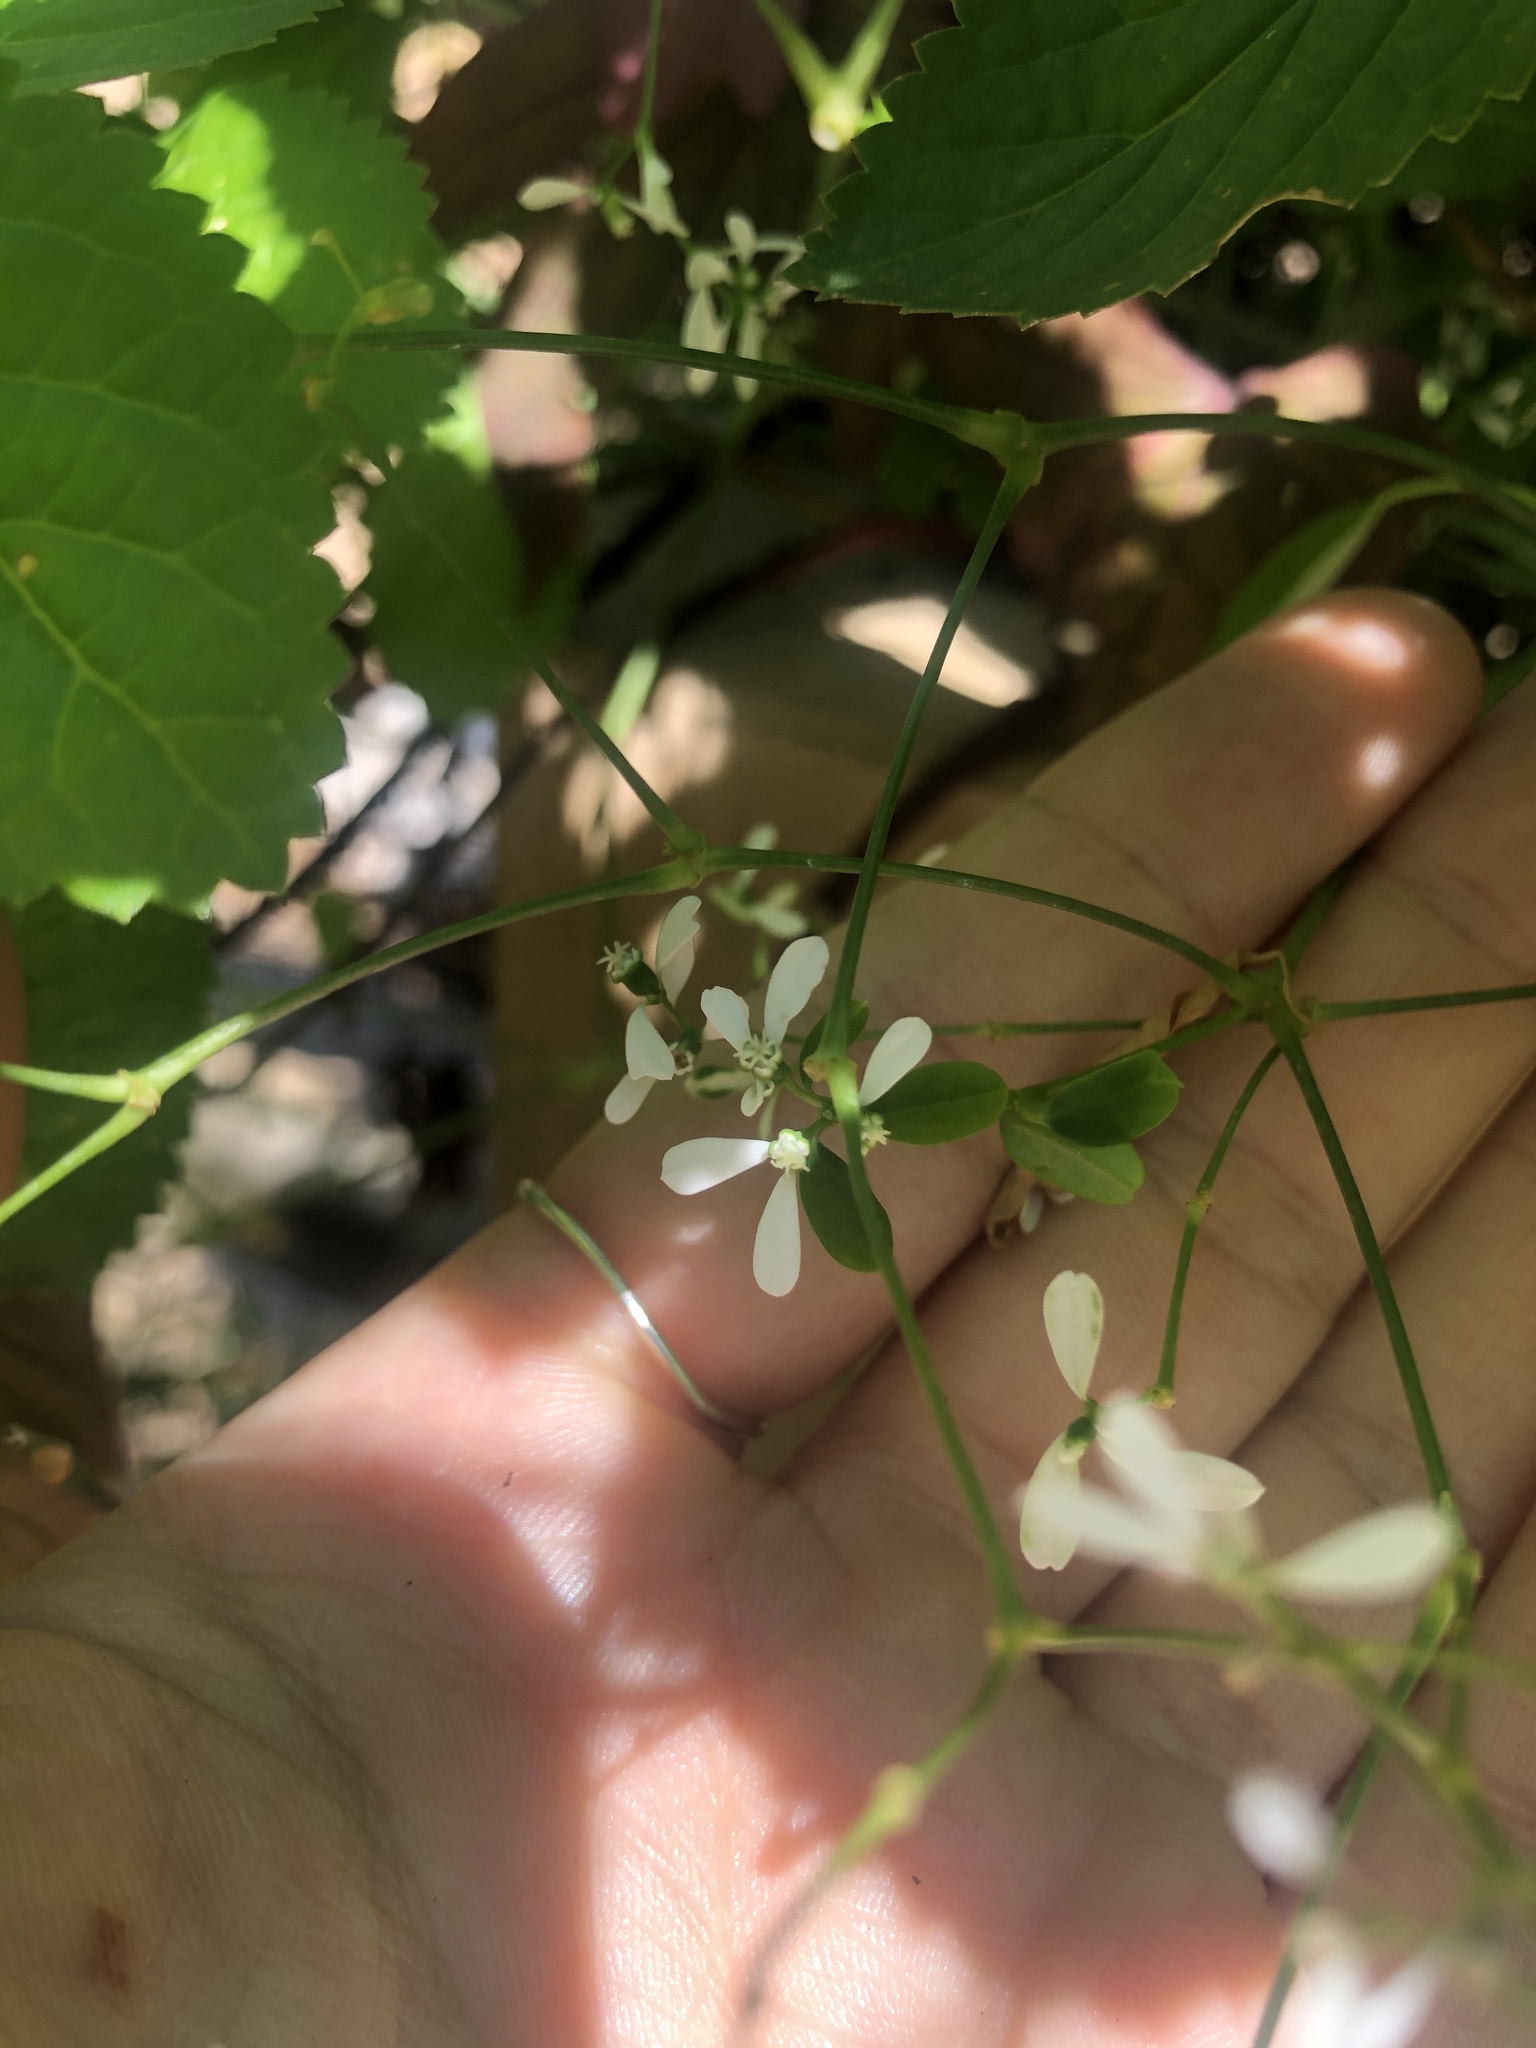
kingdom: Plantae
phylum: Tracheophyta
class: Magnoliopsida
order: Malpighiales
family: Euphorbiaceae
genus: Euphorbia
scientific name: Euphorbia graminea
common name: Grassleaf spurge
